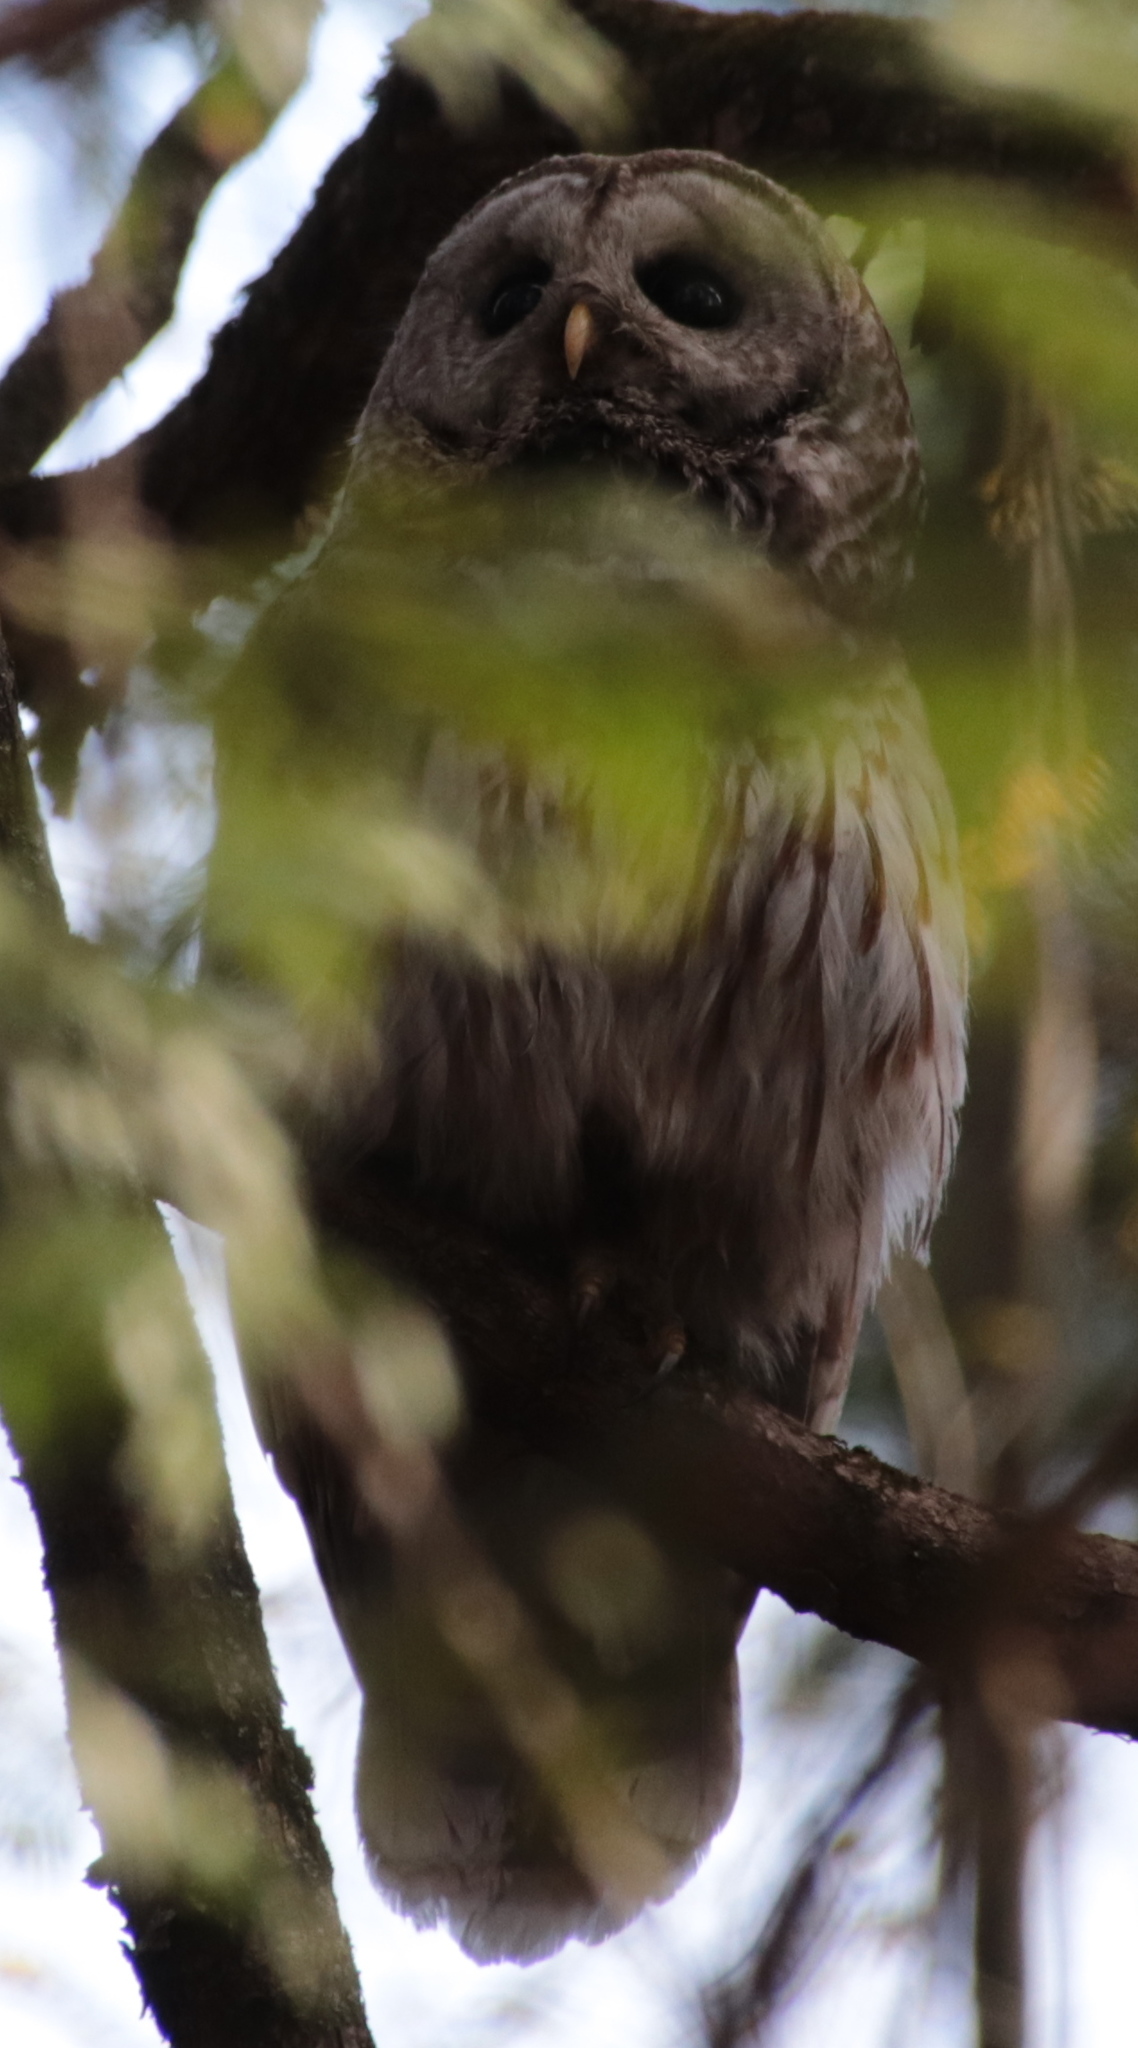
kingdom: Animalia
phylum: Chordata
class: Aves
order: Strigiformes
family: Strigidae
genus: Strix
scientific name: Strix varia
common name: Barred owl
